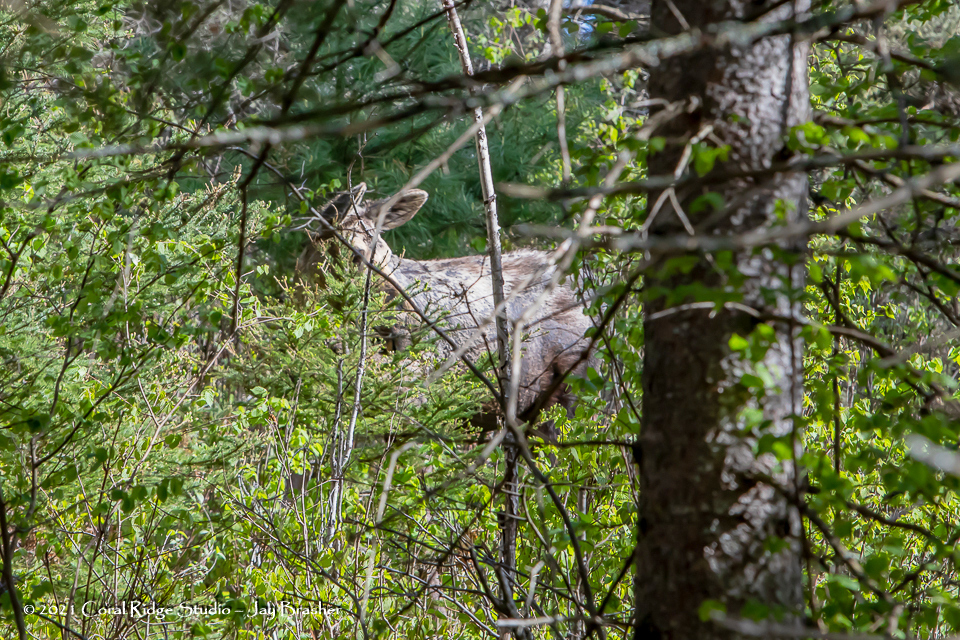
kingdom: Animalia
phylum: Chordata
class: Mammalia
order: Artiodactyla
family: Cervidae
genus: Alces
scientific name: Alces alces
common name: Moose
